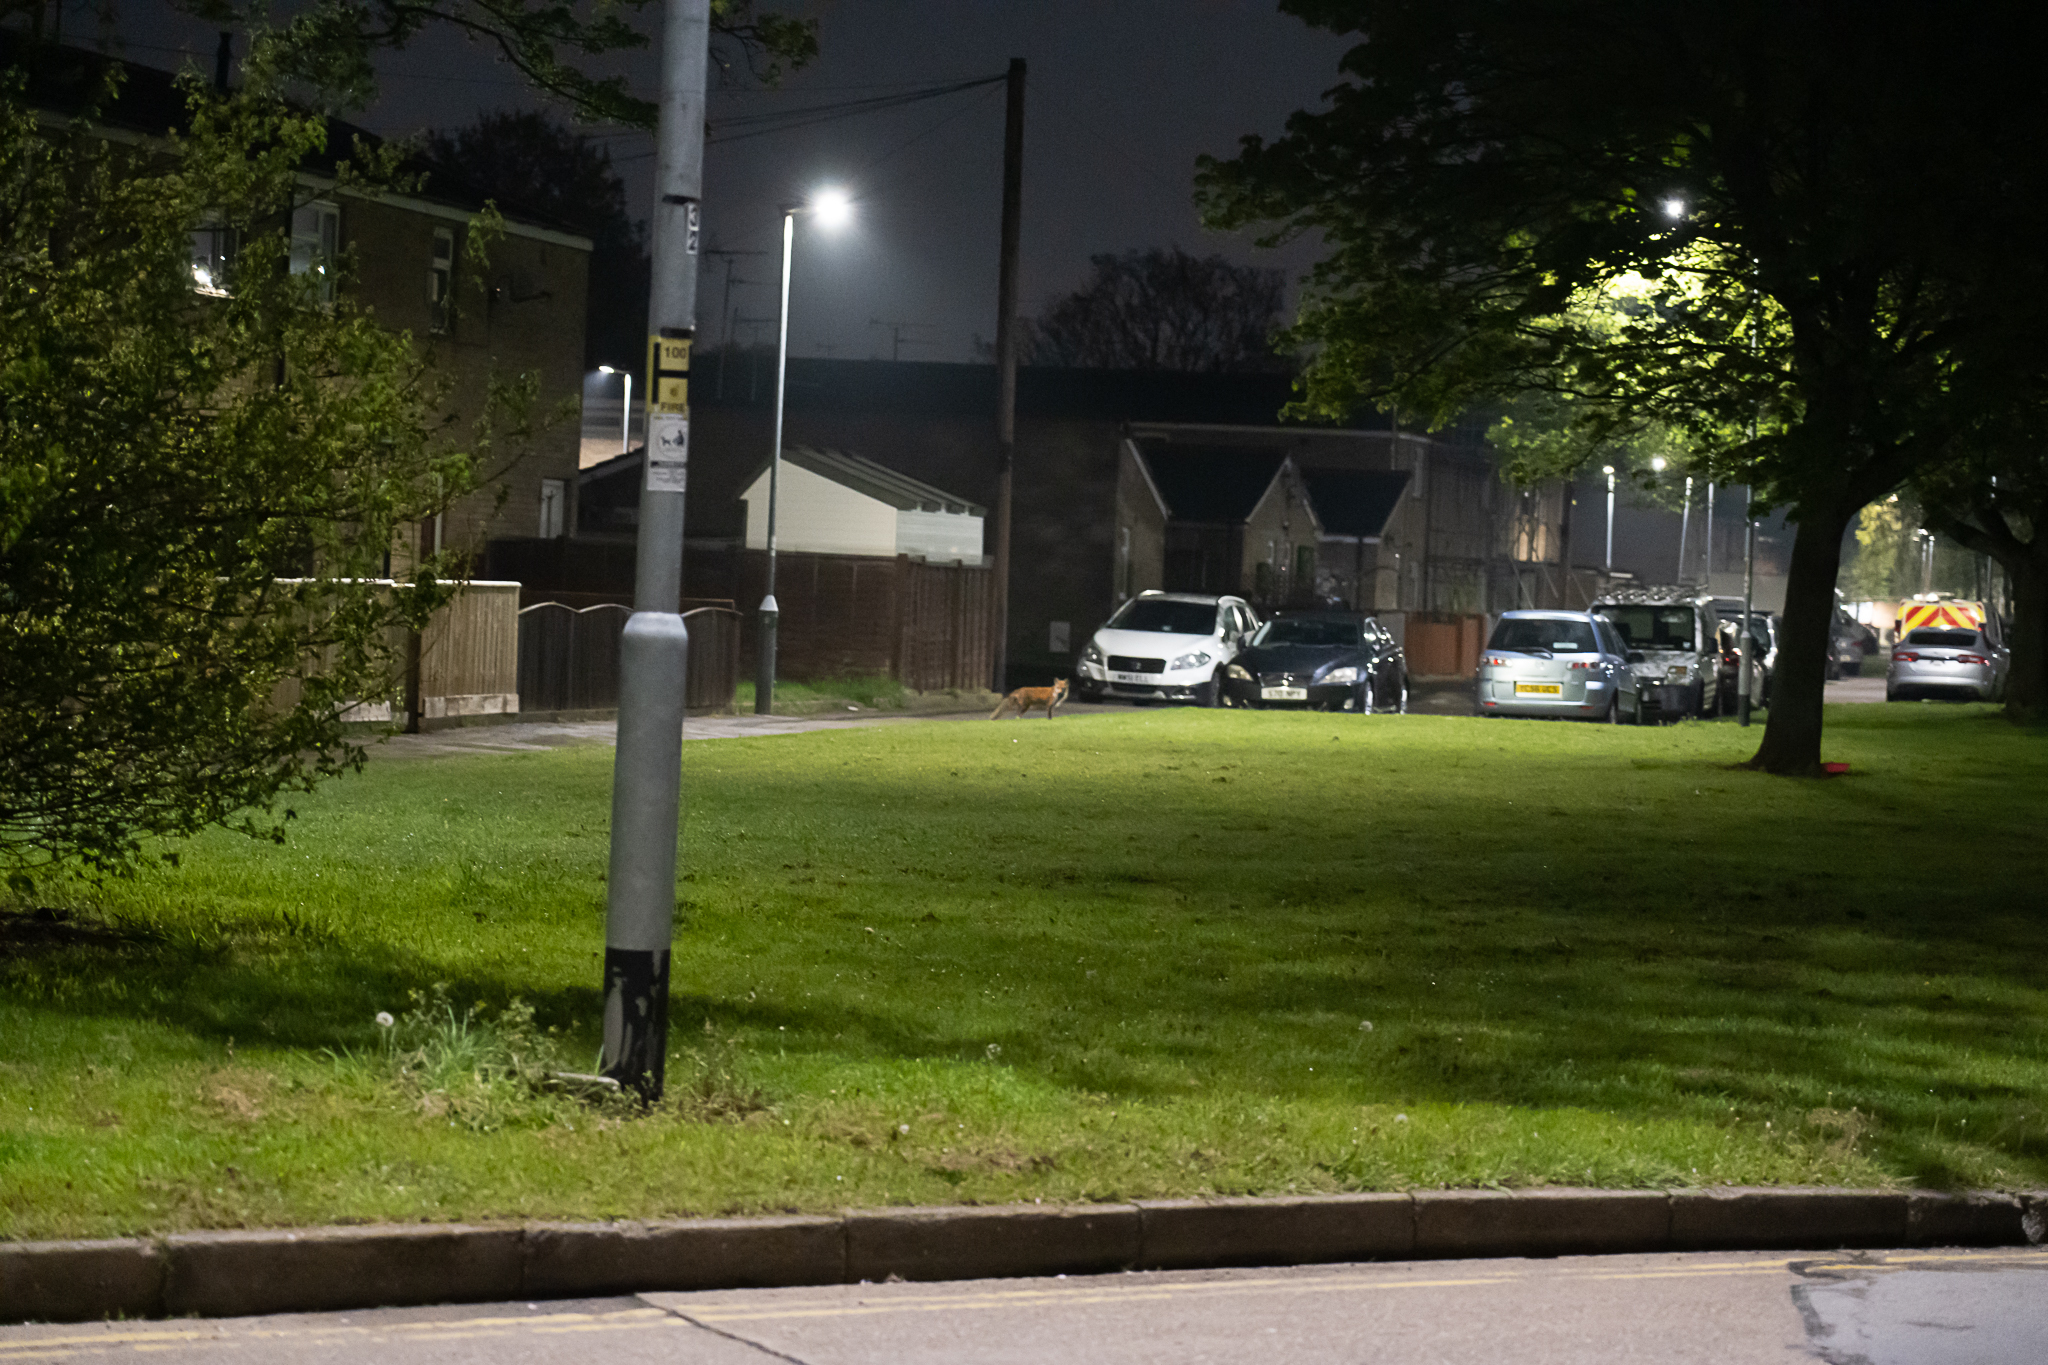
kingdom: Animalia
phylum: Chordata
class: Mammalia
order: Carnivora
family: Canidae
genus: Vulpes
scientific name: Vulpes vulpes
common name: Red fox
